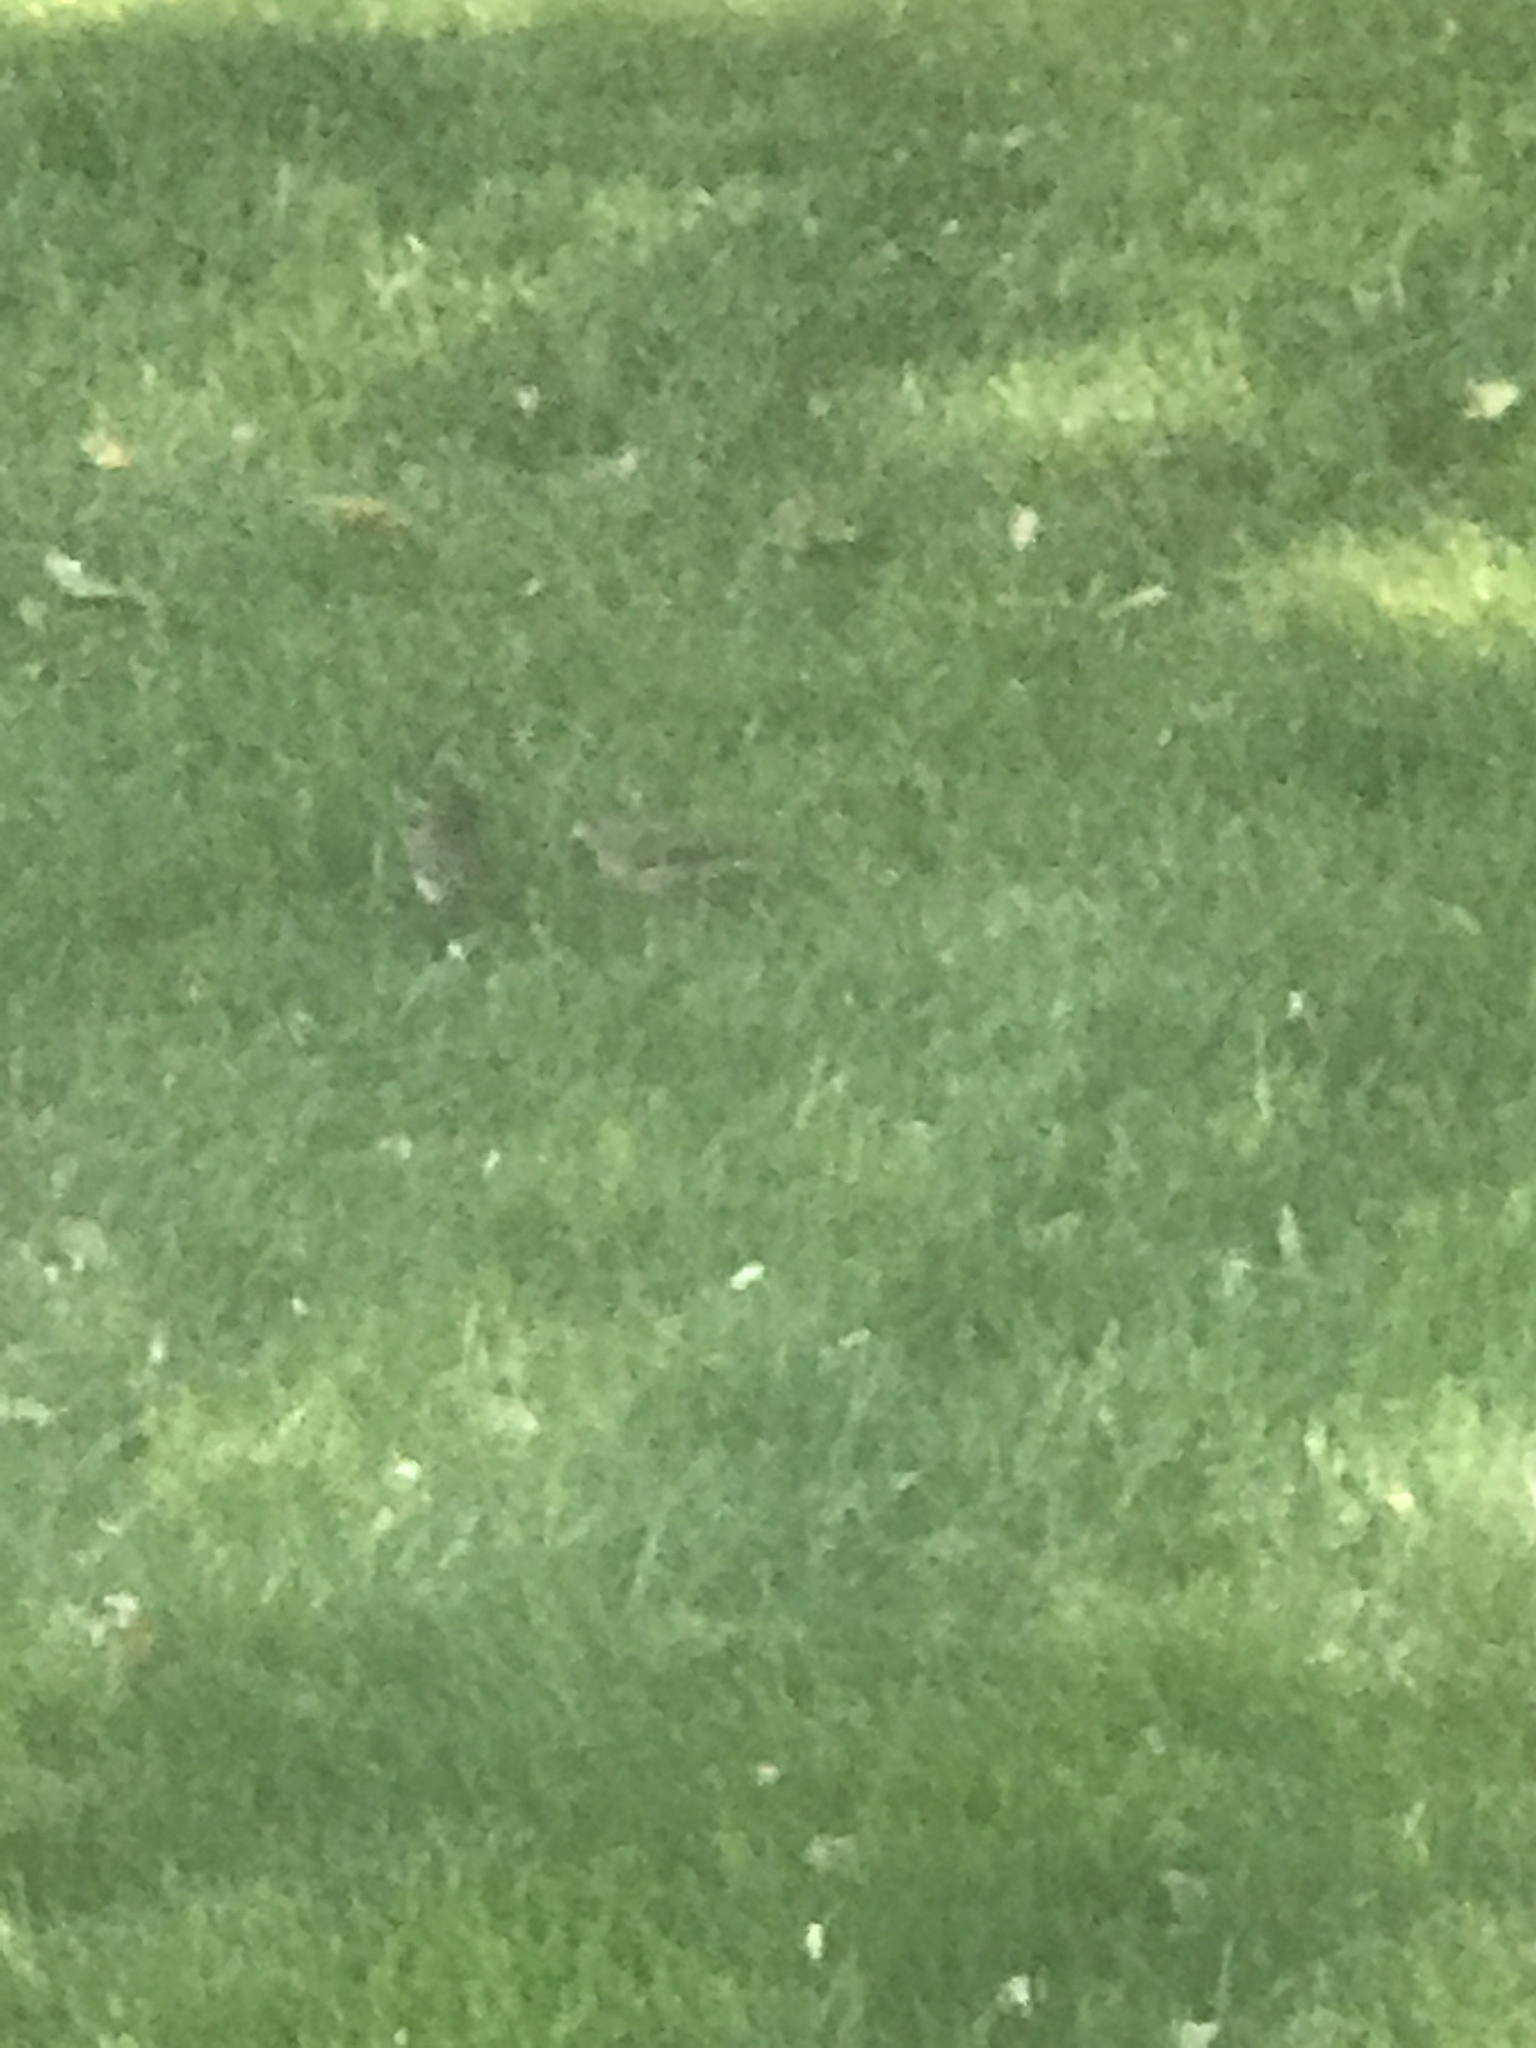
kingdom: Animalia
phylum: Chordata
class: Aves
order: Passeriformes
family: Passerellidae
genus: Junco
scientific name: Junco hyemalis
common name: Dark-eyed junco
